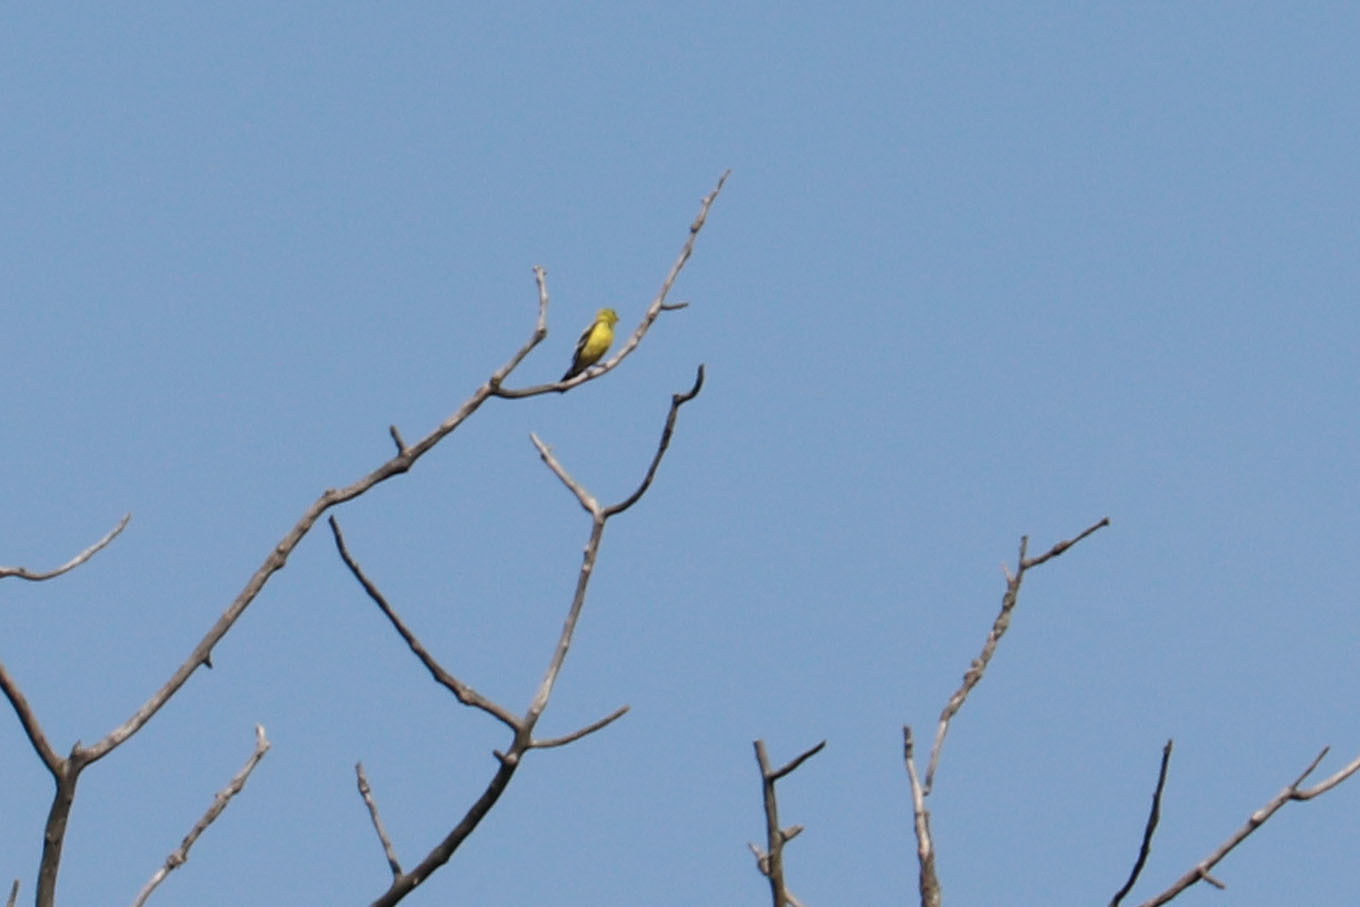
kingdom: Animalia
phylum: Chordata
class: Aves
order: Passeriformes
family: Fringillidae
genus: Spinus
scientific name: Spinus tristis
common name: American goldfinch
